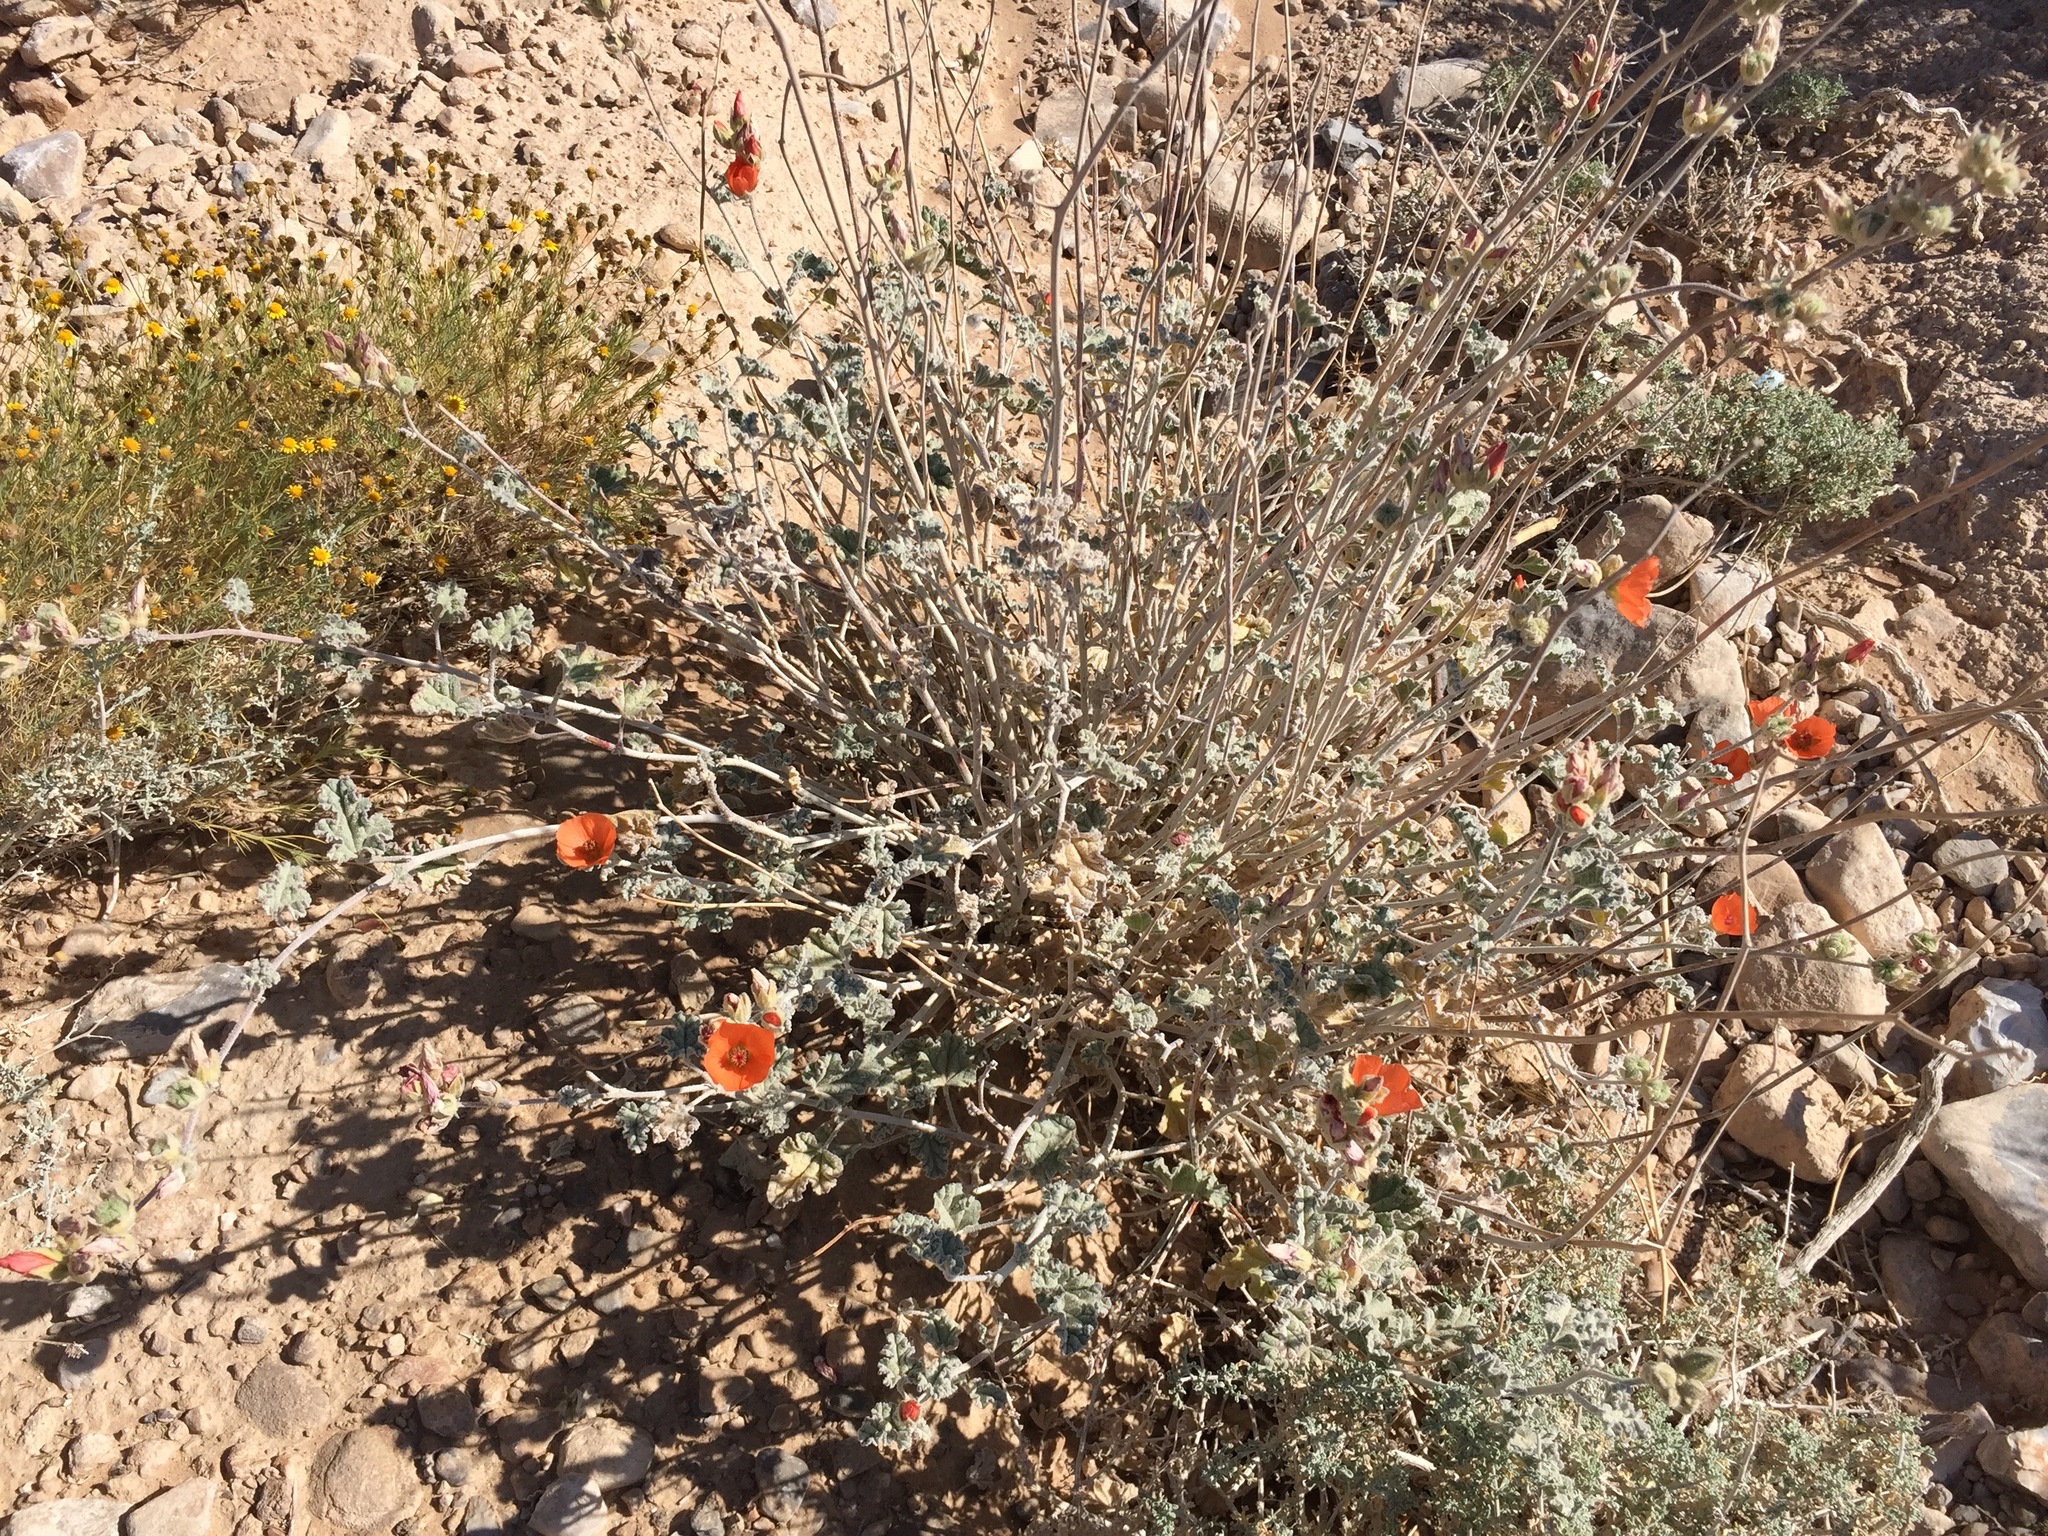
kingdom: Plantae
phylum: Tracheophyta
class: Magnoliopsida
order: Malvales
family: Malvaceae
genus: Sphaeralcea
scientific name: Sphaeralcea ambigua
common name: Apricot globe-mallow
